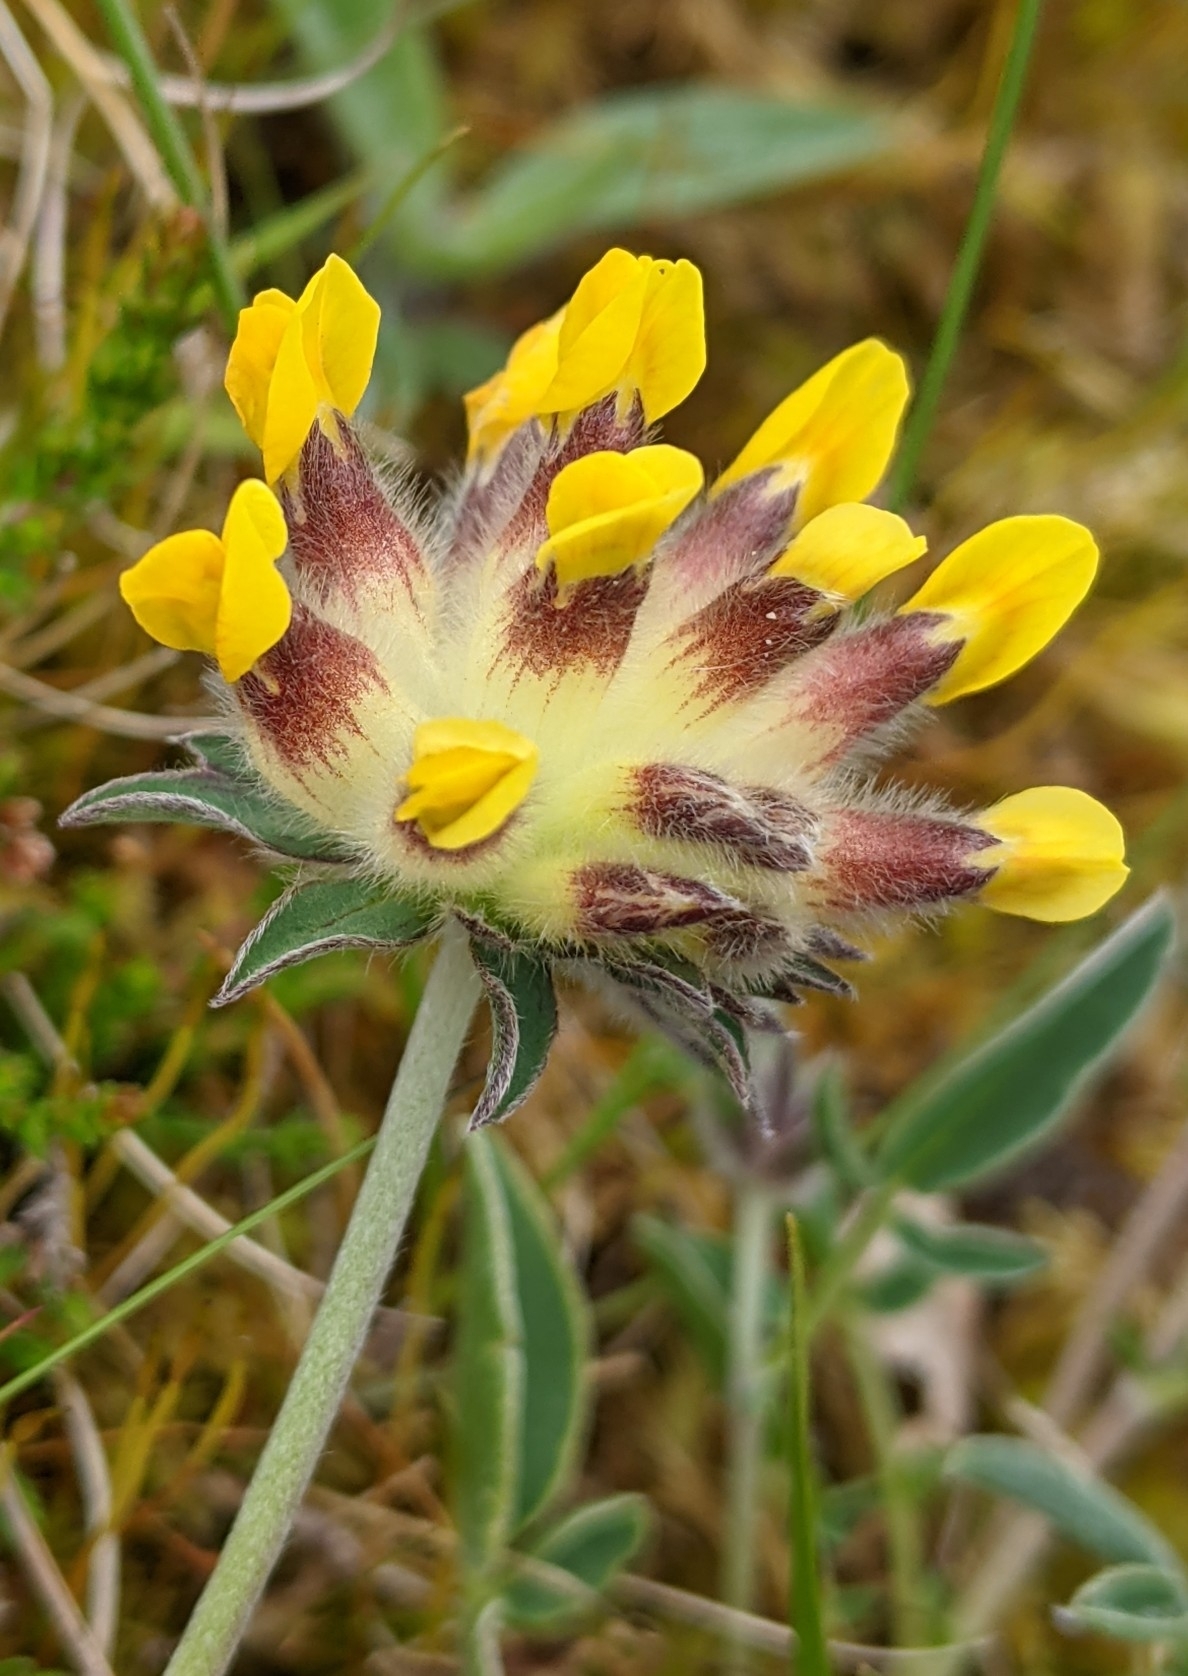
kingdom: Plantae
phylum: Tracheophyta
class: Magnoliopsida
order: Fabales
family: Fabaceae
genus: Anthyllis
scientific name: Anthyllis vulneraria
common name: Kidney vetch
